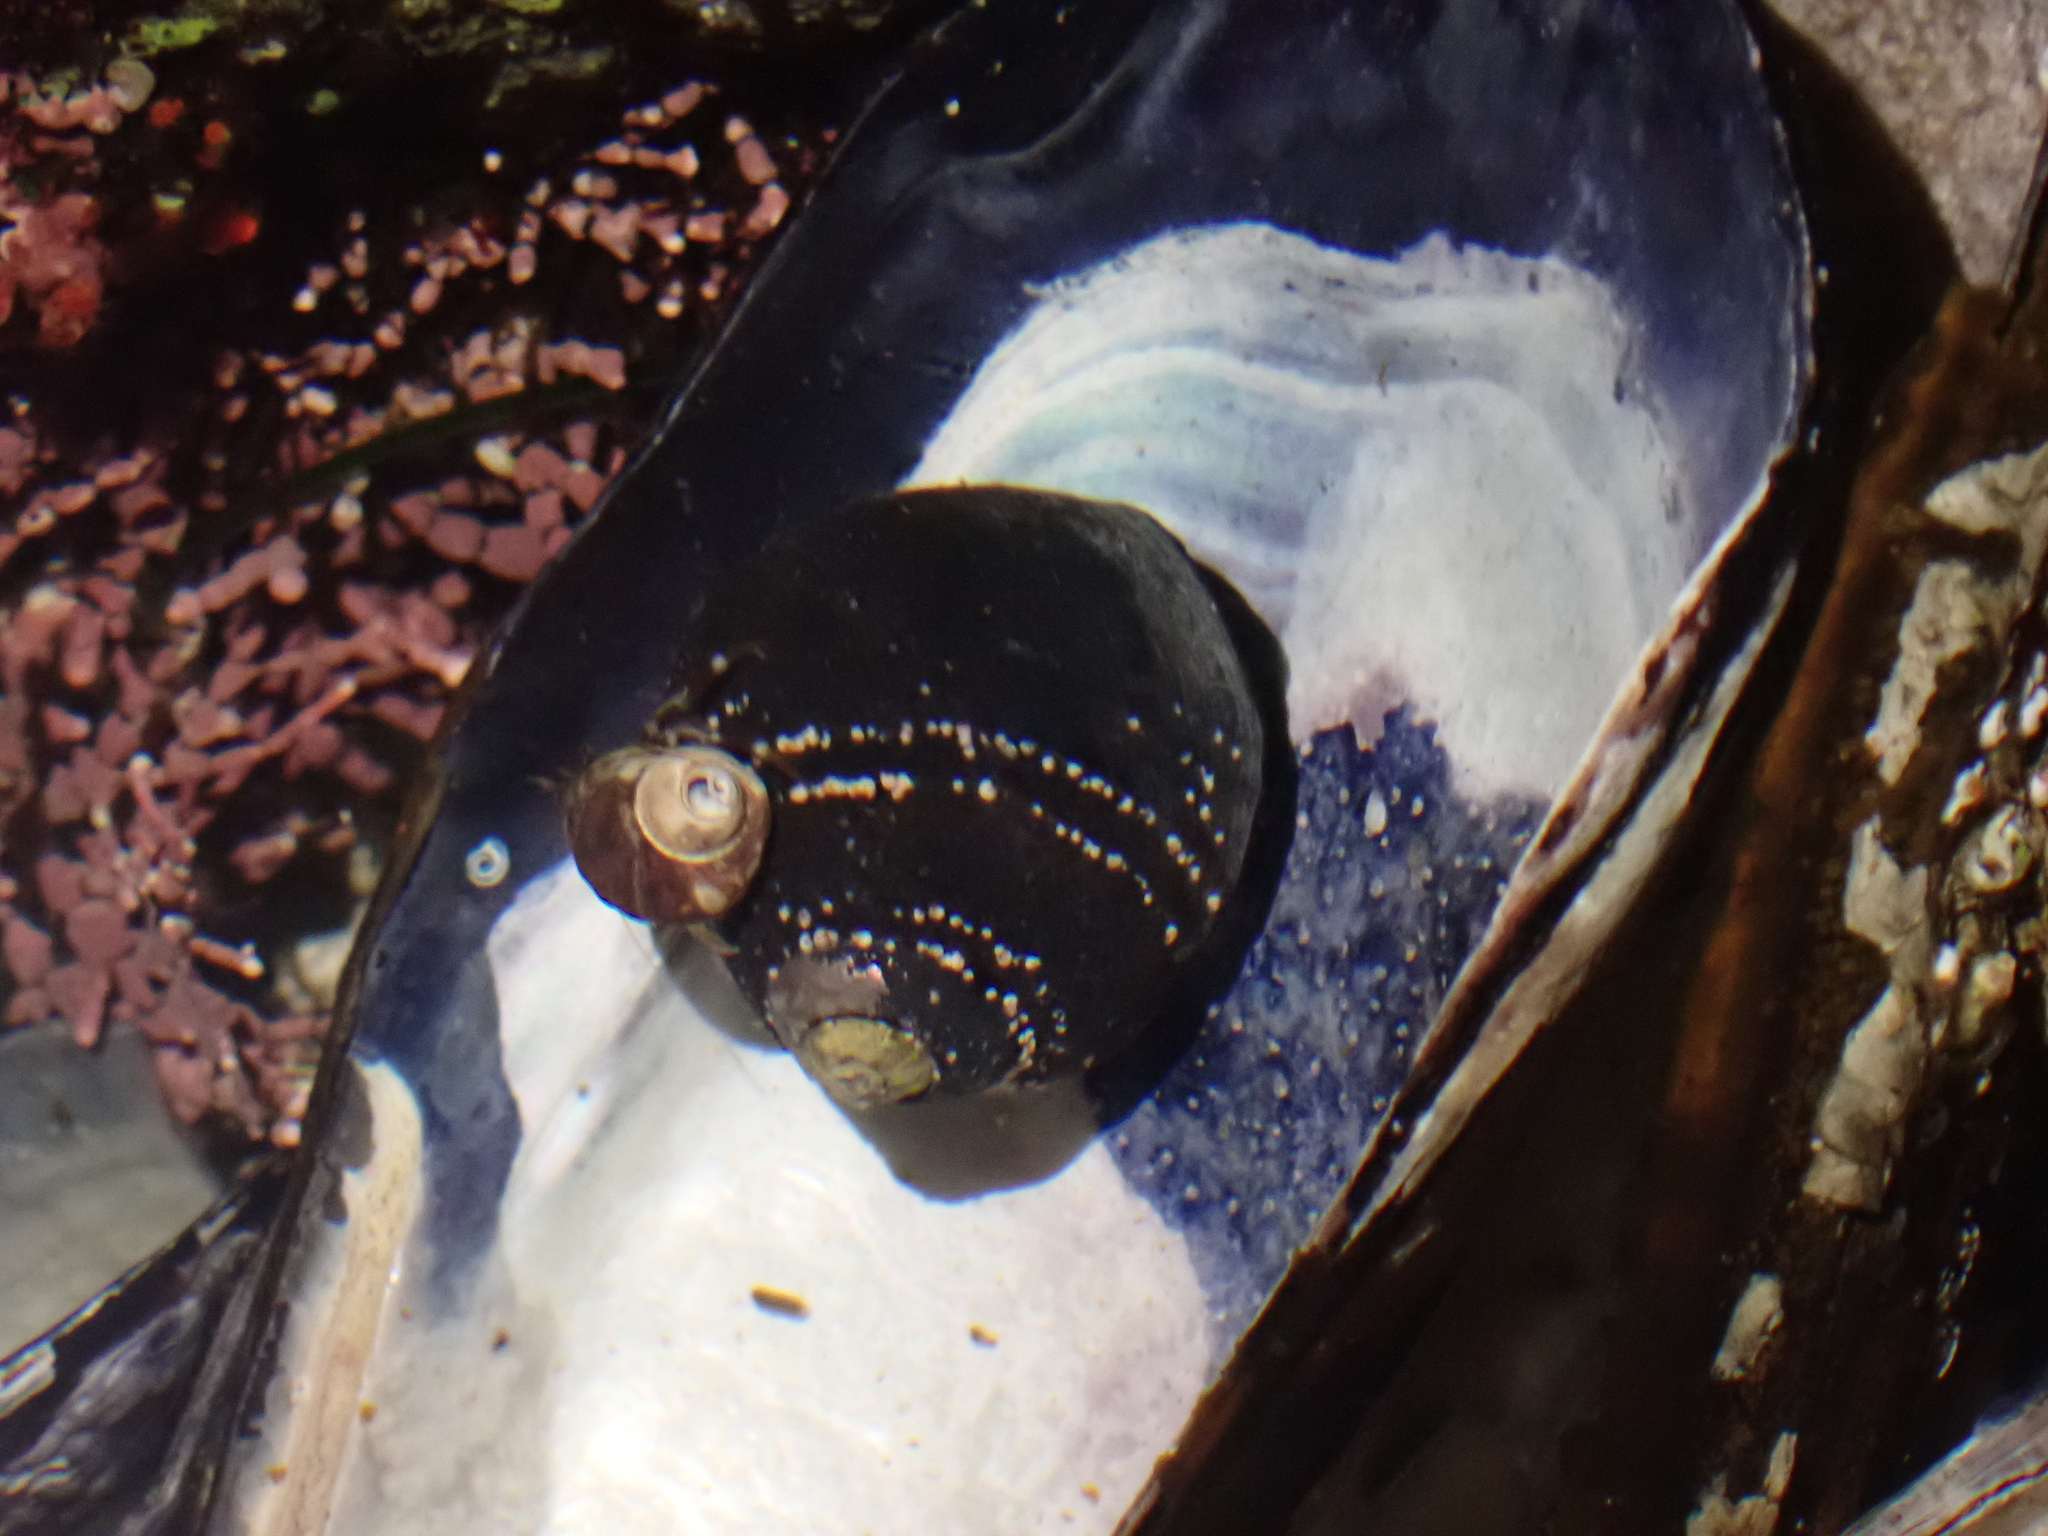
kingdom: Animalia
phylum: Mollusca
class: Gastropoda
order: Trochida
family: Tegulidae
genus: Tegula
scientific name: Tegula funebralis
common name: Black tegula
